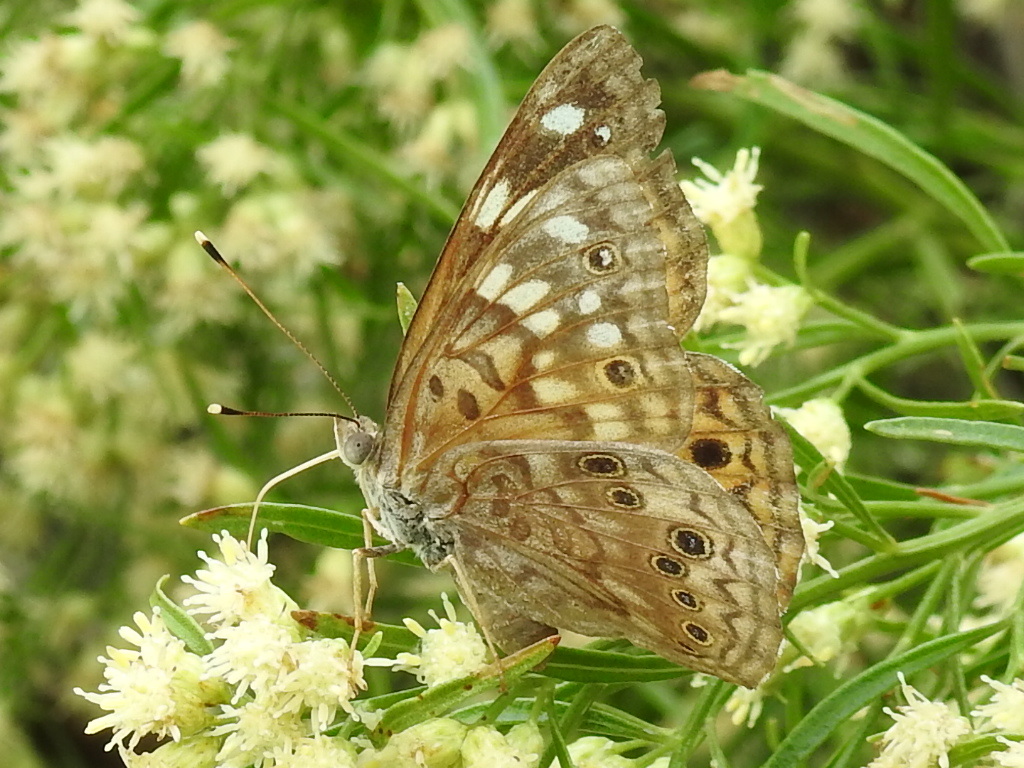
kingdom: Animalia
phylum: Arthropoda
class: Insecta
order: Lepidoptera
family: Nymphalidae
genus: Asterocampa
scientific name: Asterocampa celtis
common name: Hackberry emperor
